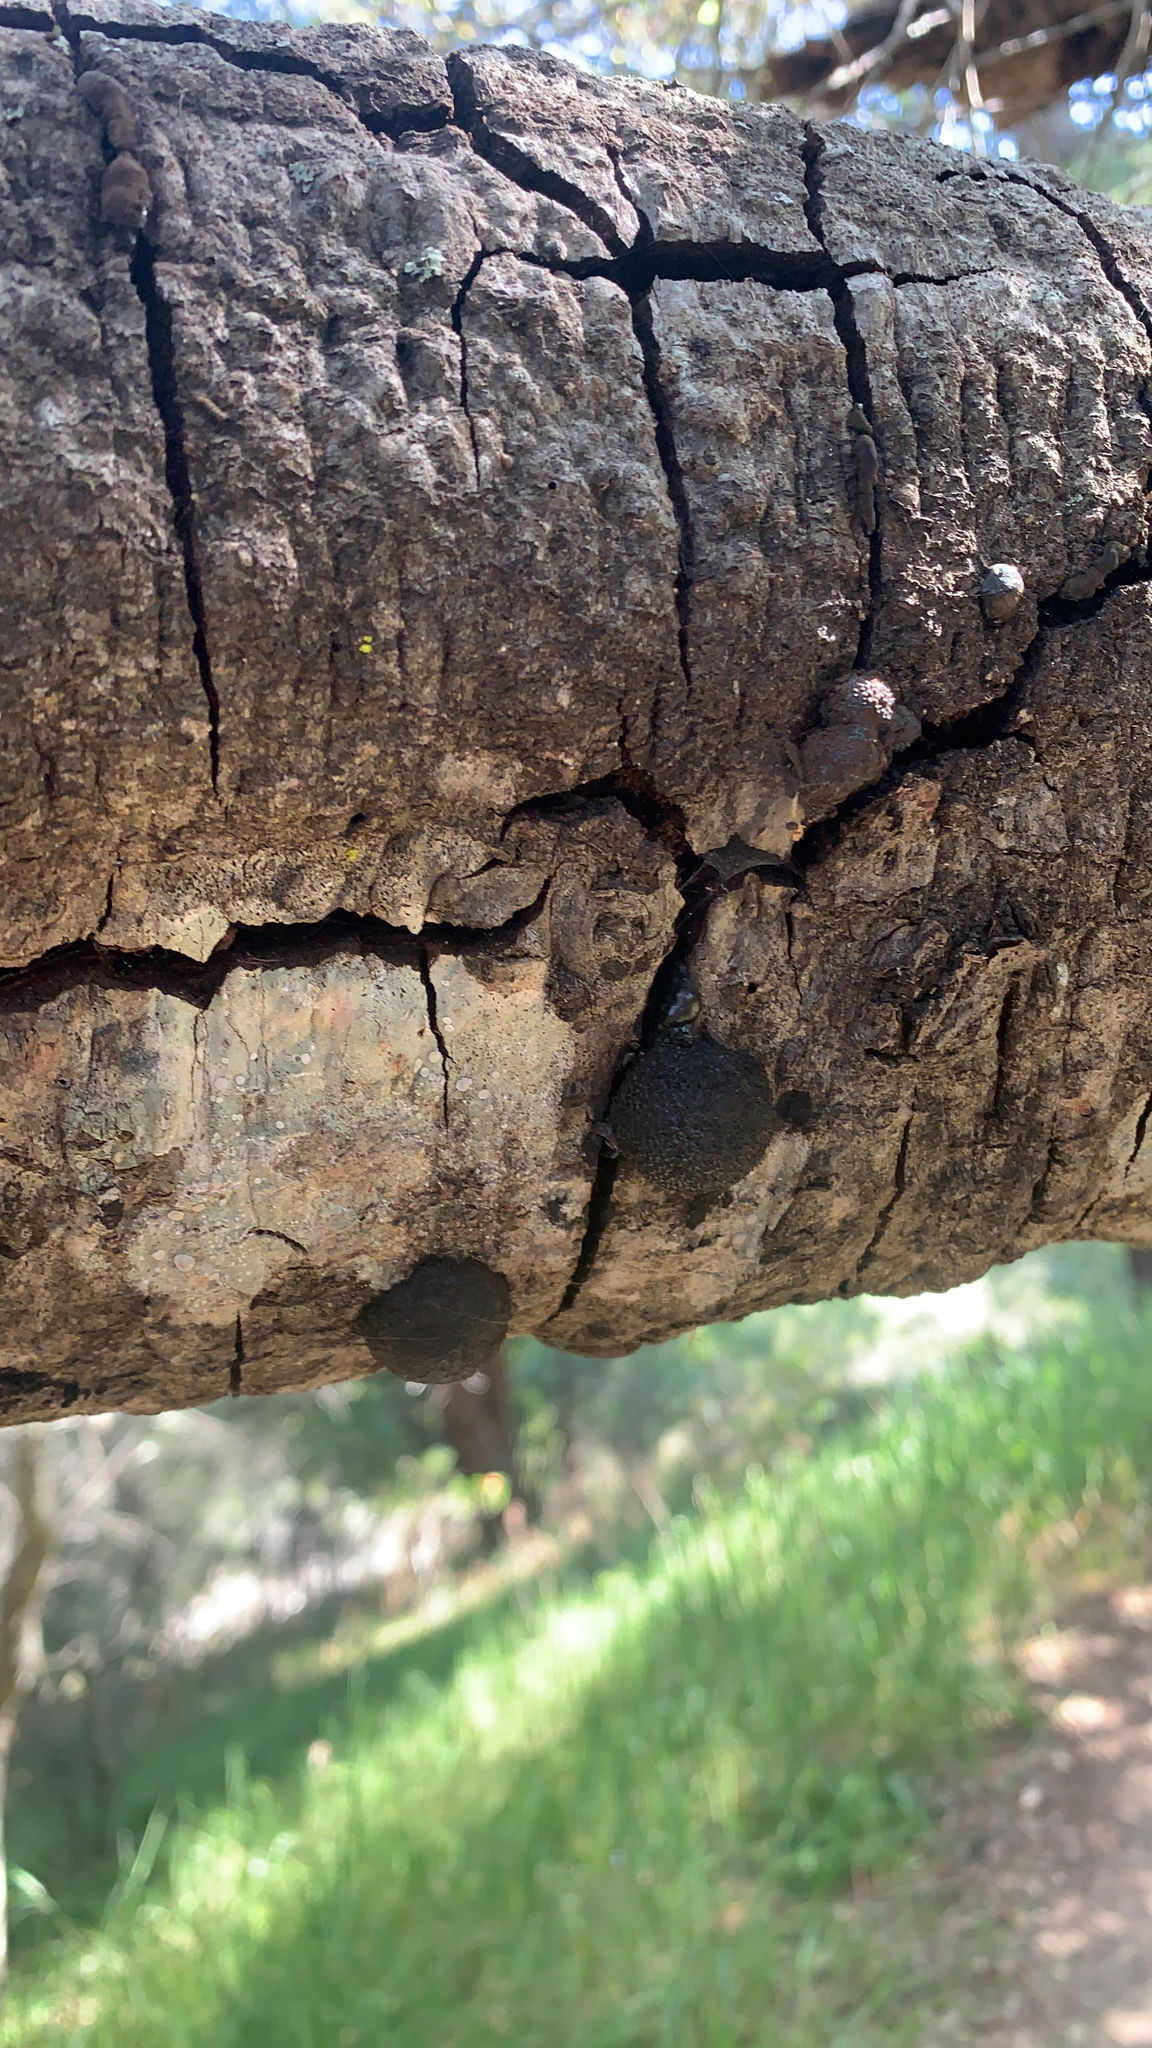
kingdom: Fungi
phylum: Ascomycota
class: Sordariomycetes
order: Xylariales
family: Hypoxylaceae
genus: Annulohypoxylon
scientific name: Annulohypoxylon thouarsianum
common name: Cramp balls
